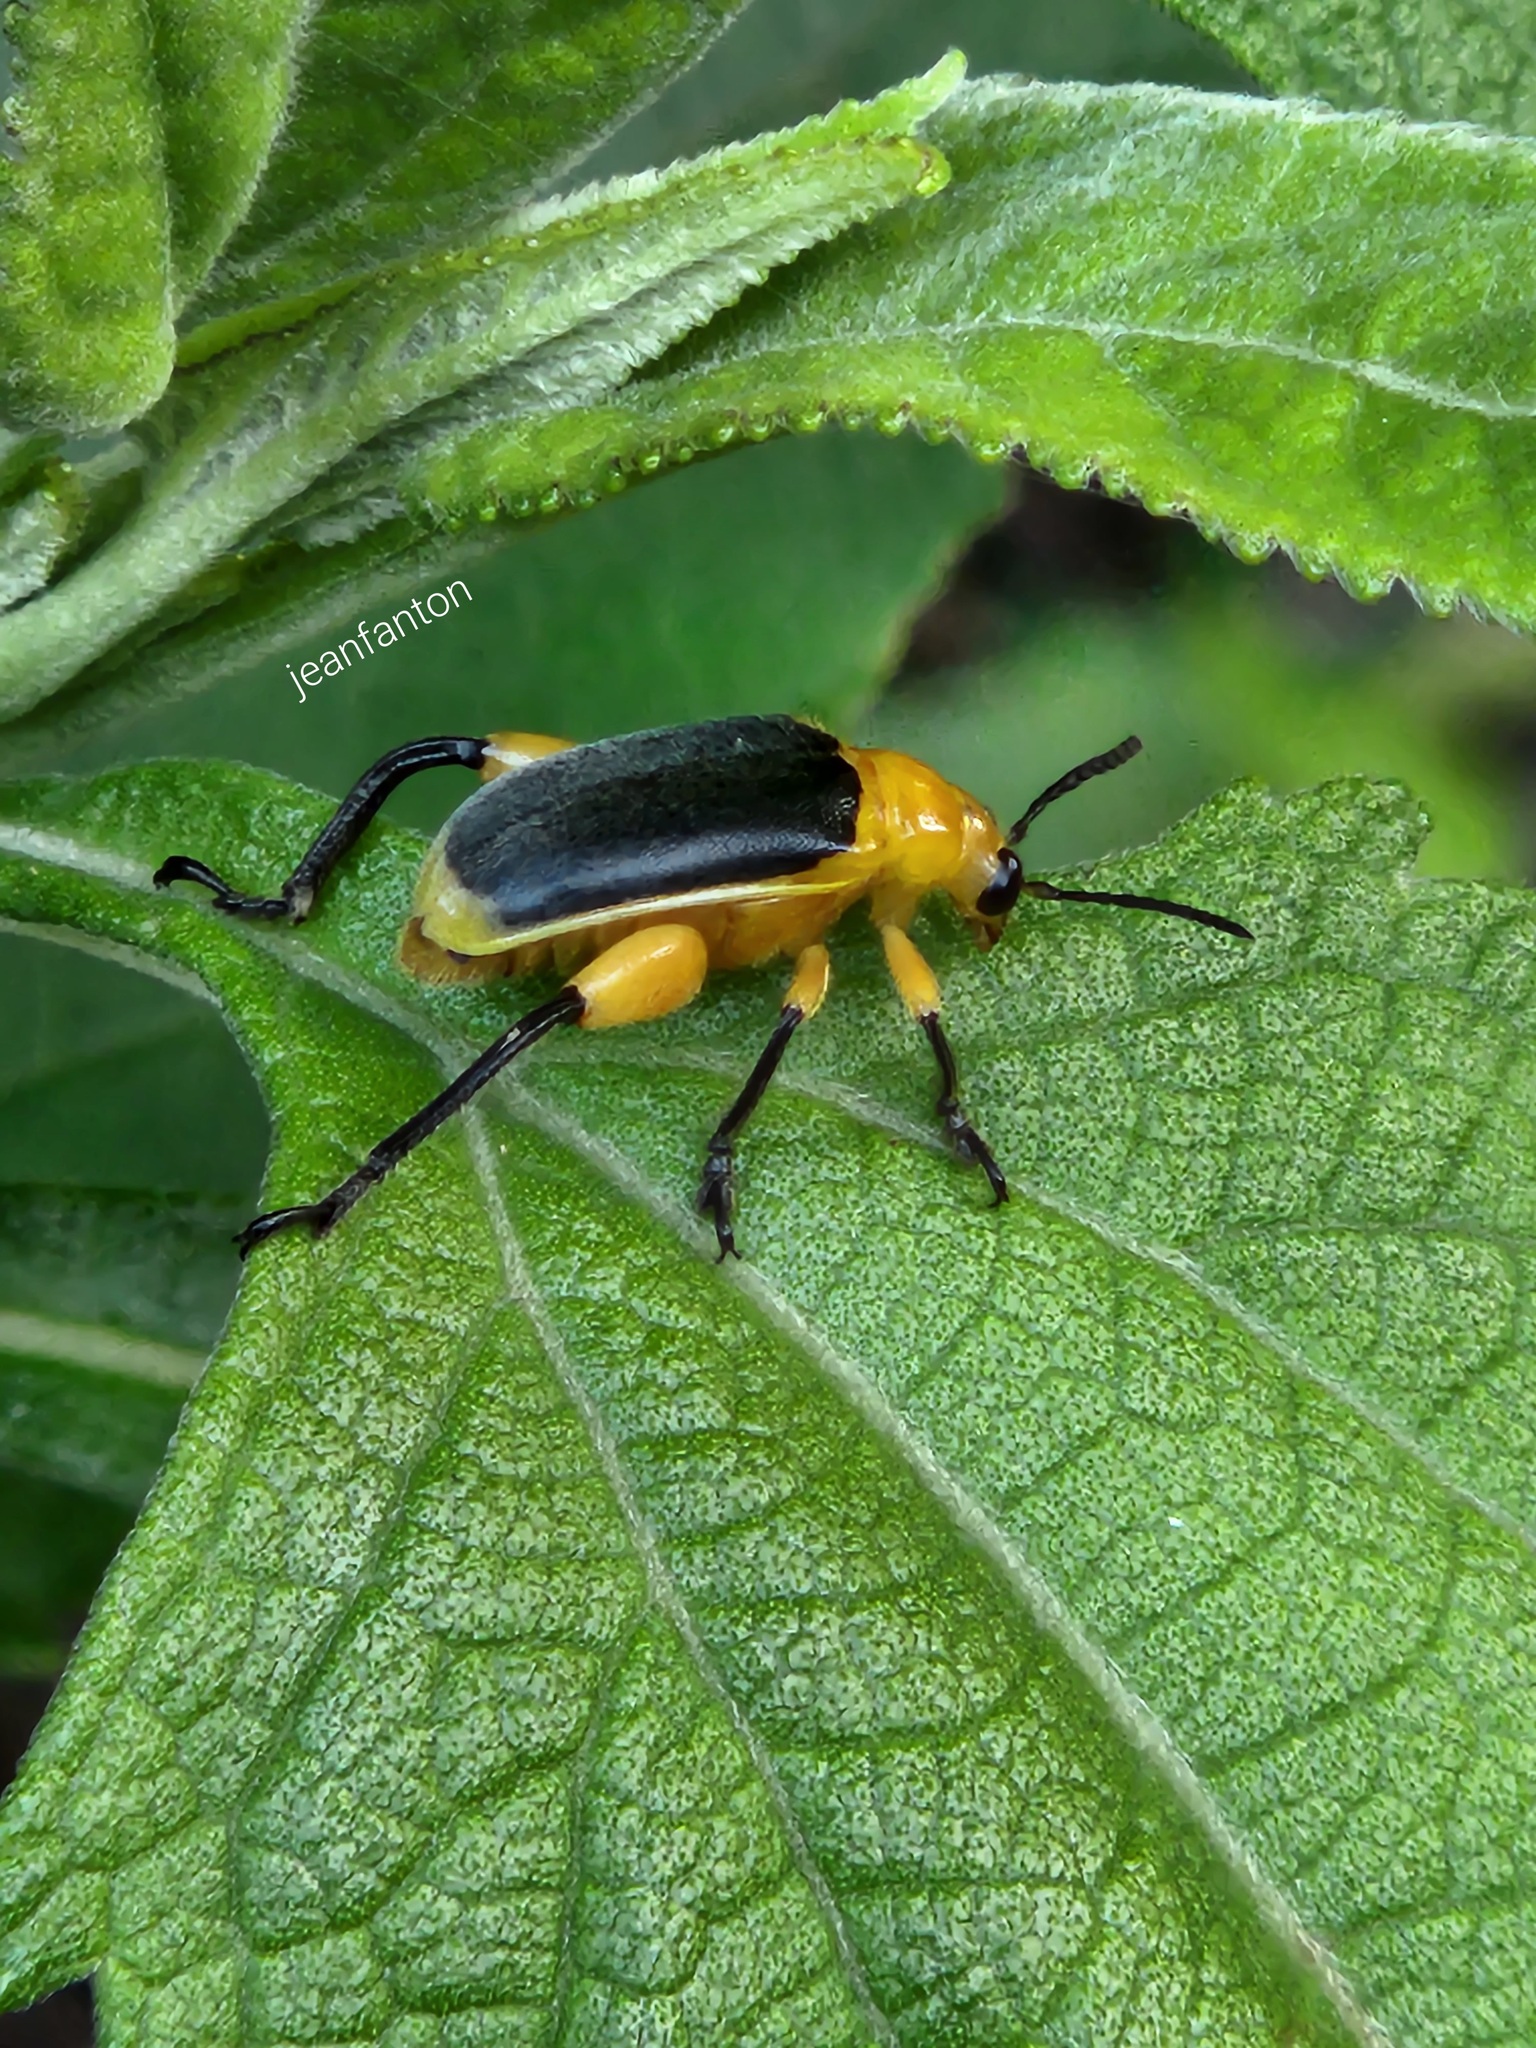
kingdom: Animalia
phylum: Arthropoda
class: Insecta
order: Coleoptera
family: Megalopodidae
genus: Agathomerus
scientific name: Agathomerus sellatus
